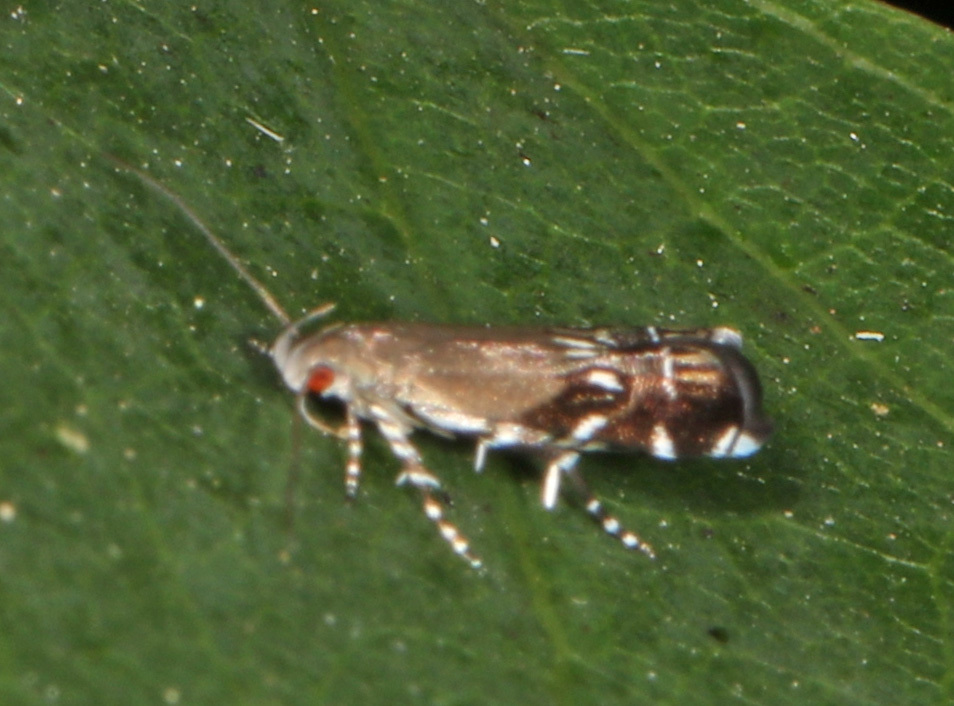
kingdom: Animalia
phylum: Arthropoda
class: Insecta
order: Lepidoptera
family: Gelechiidae
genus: Anacampsis
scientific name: Anacampsis levipedella
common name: Silver-dashed anacampsis
